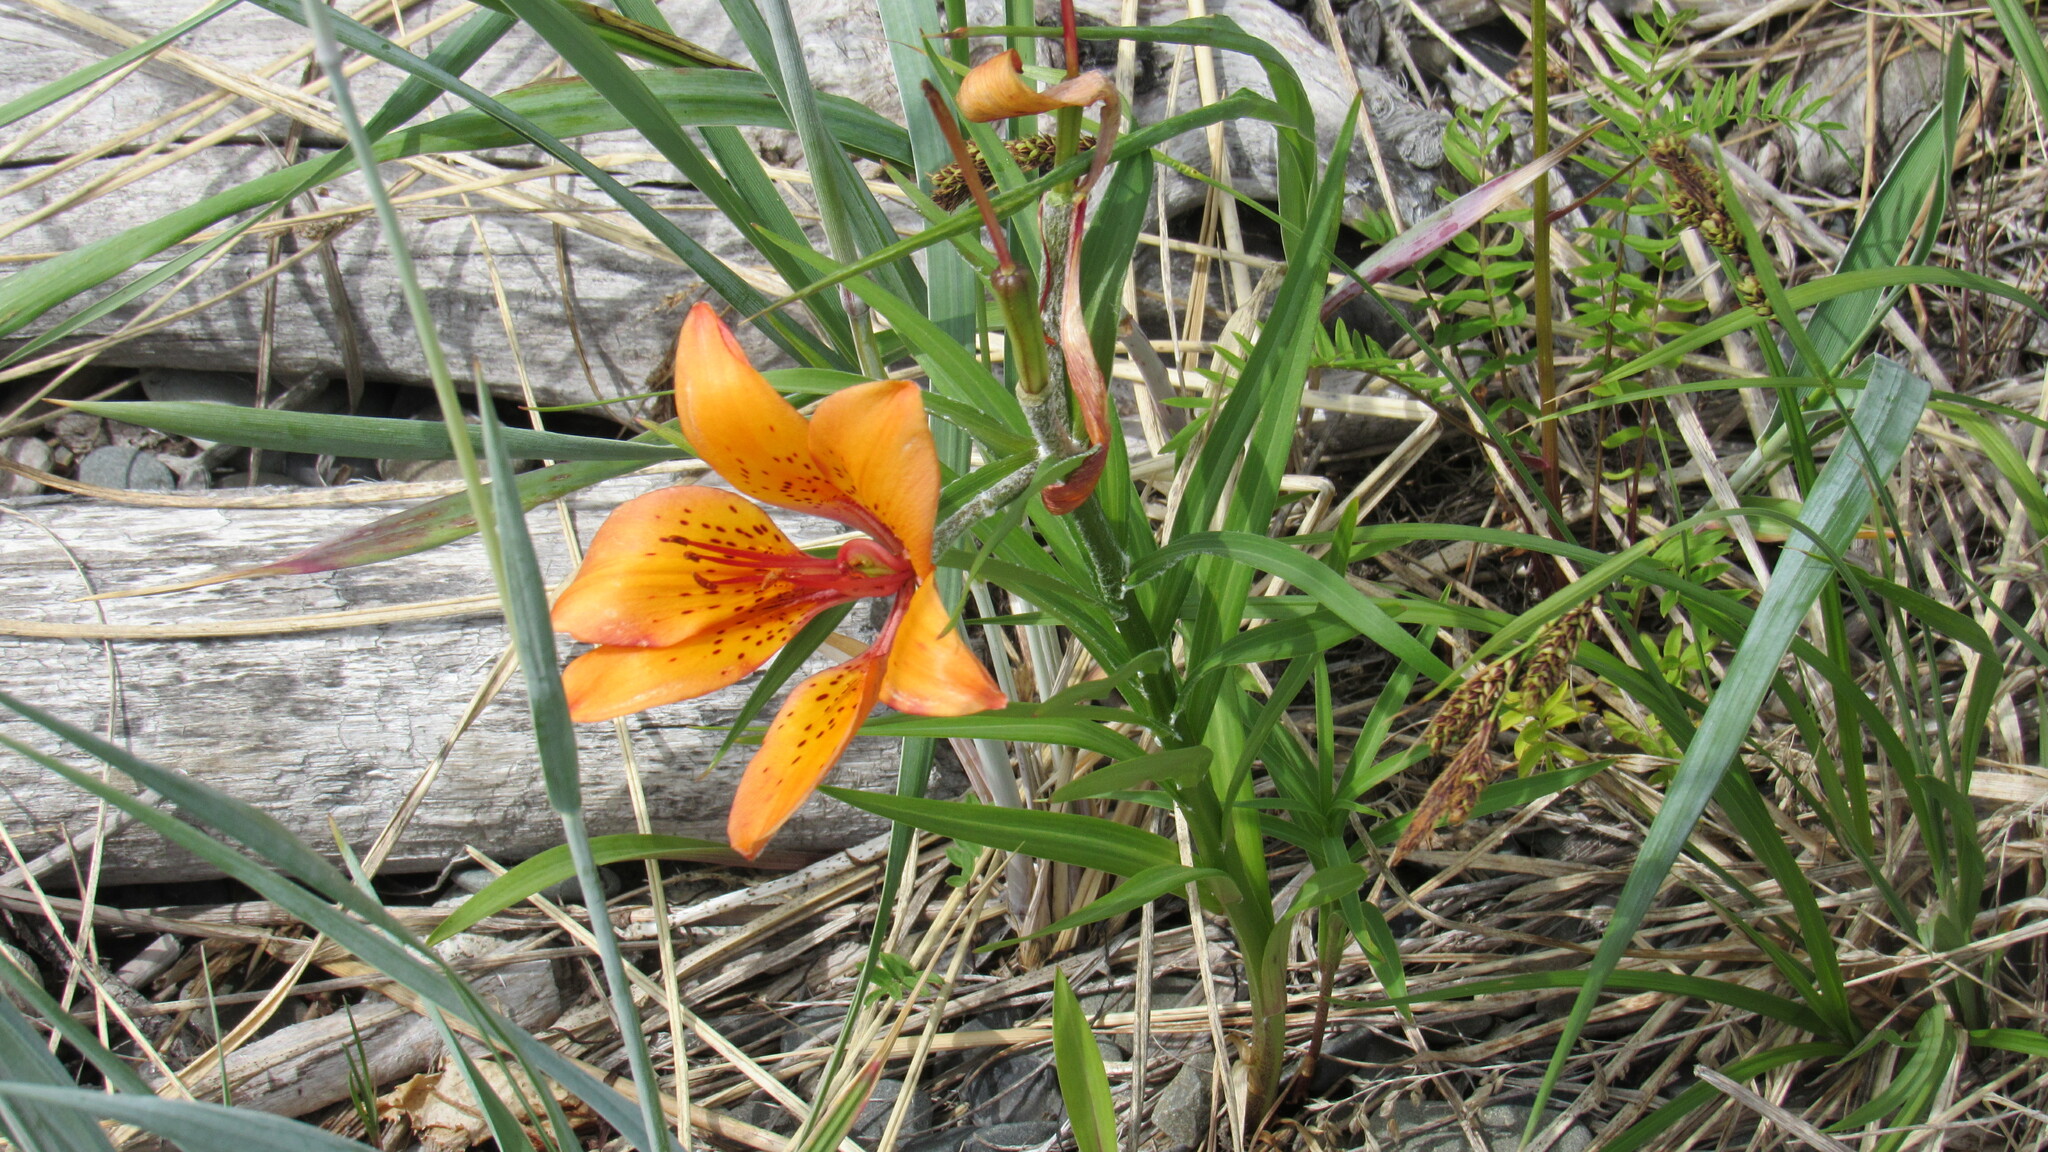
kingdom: Plantae
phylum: Tracheophyta
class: Liliopsida
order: Liliales
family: Liliaceae
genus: Lilium
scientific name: Lilium pensylvanicum
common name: Candlestick lily
